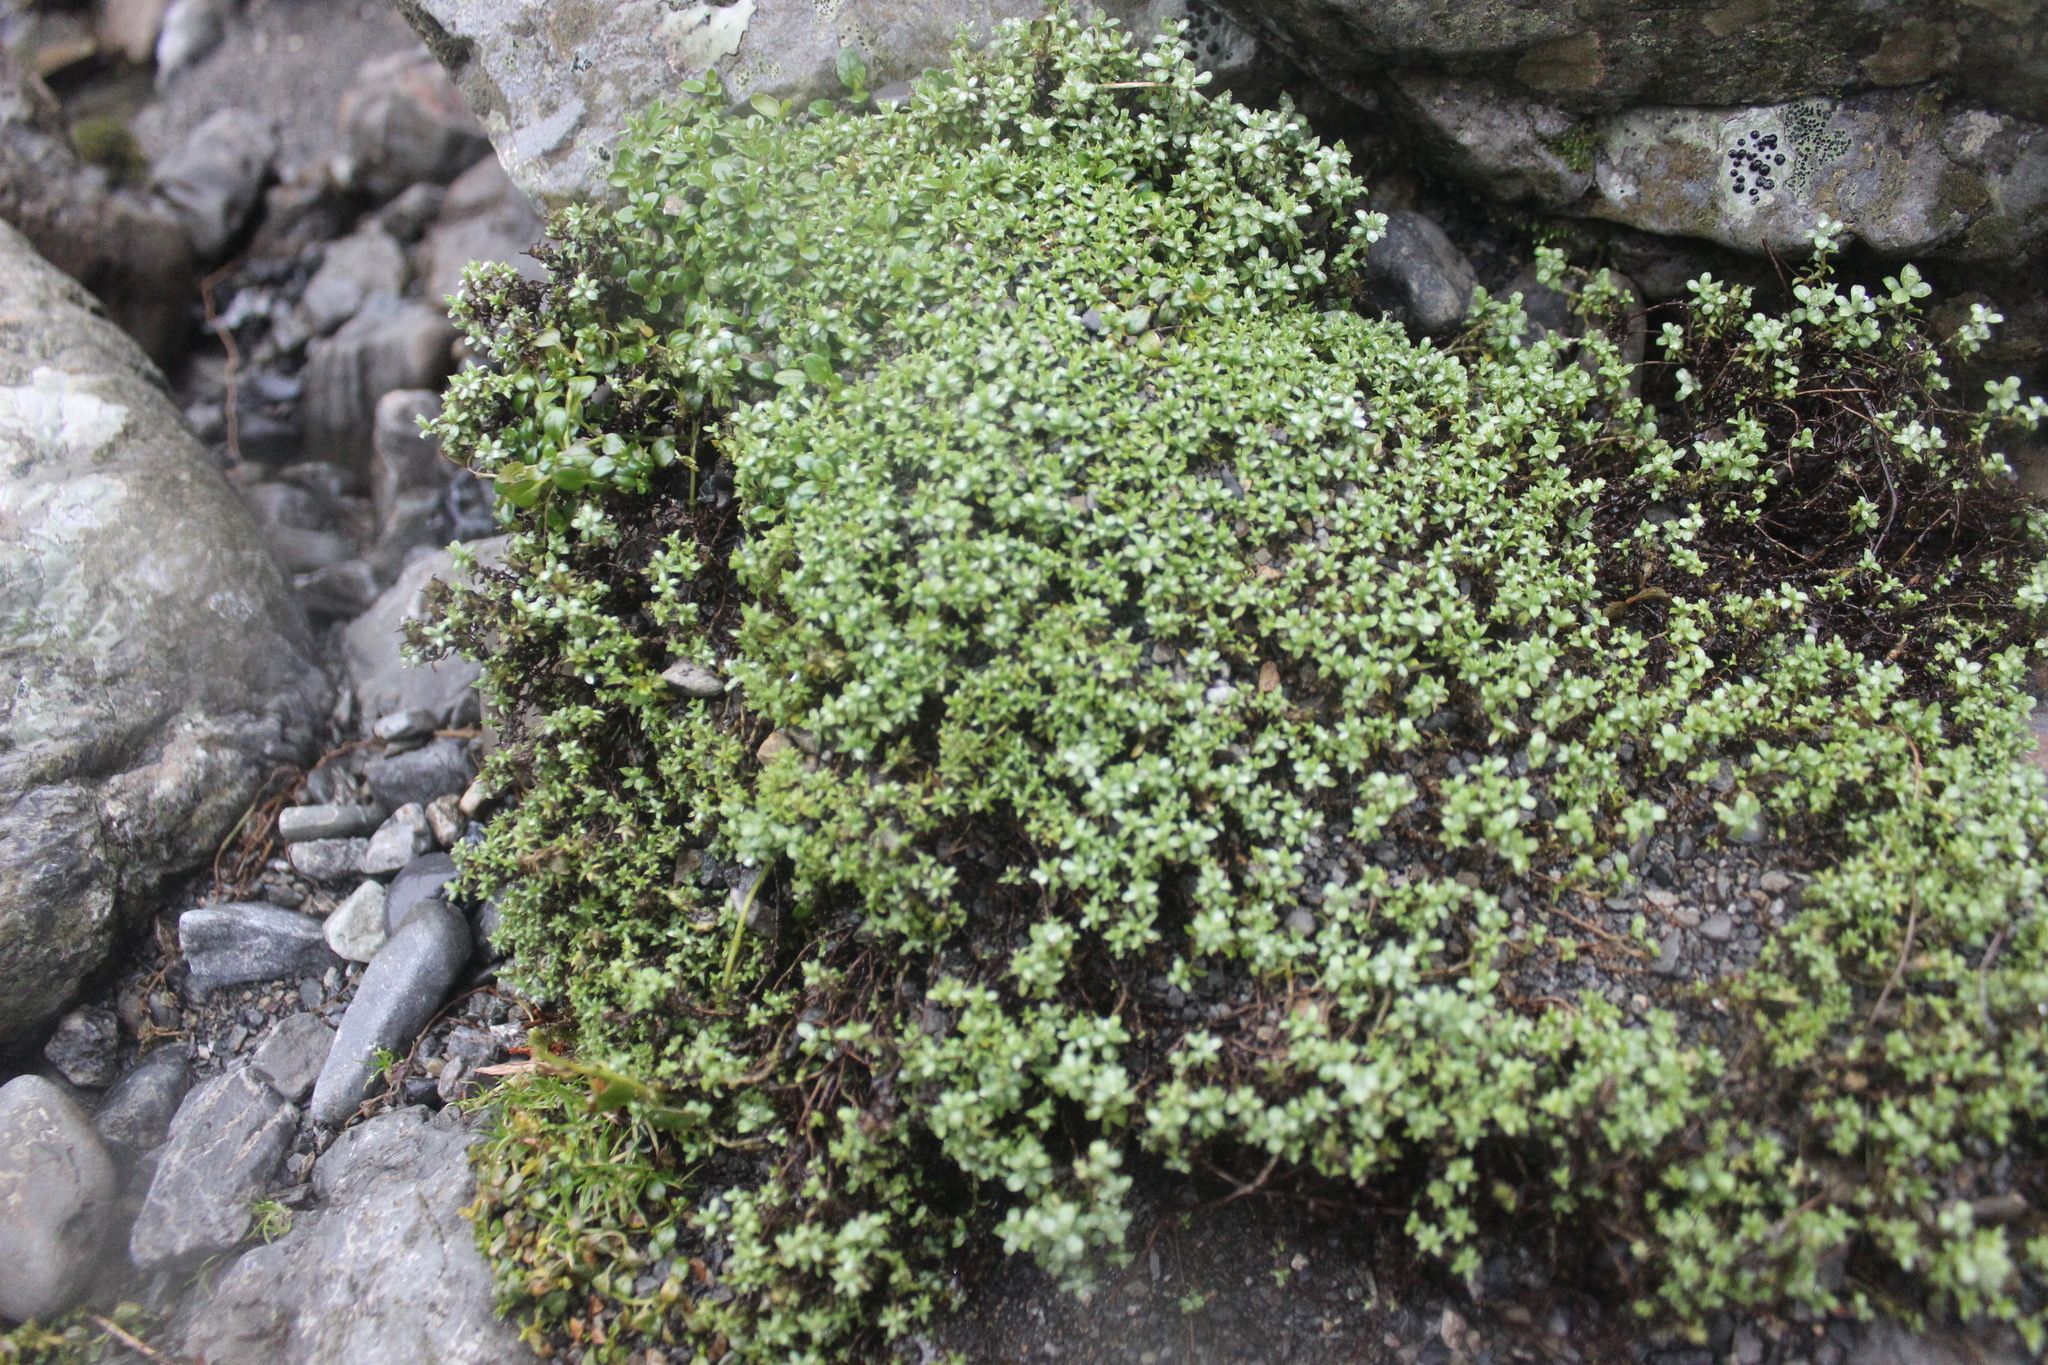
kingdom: Plantae
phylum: Tracheophyta
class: Magnoliopsida
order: Asterales
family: Asteraceae
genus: Raoulia
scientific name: Raoulia tenuicaulis
